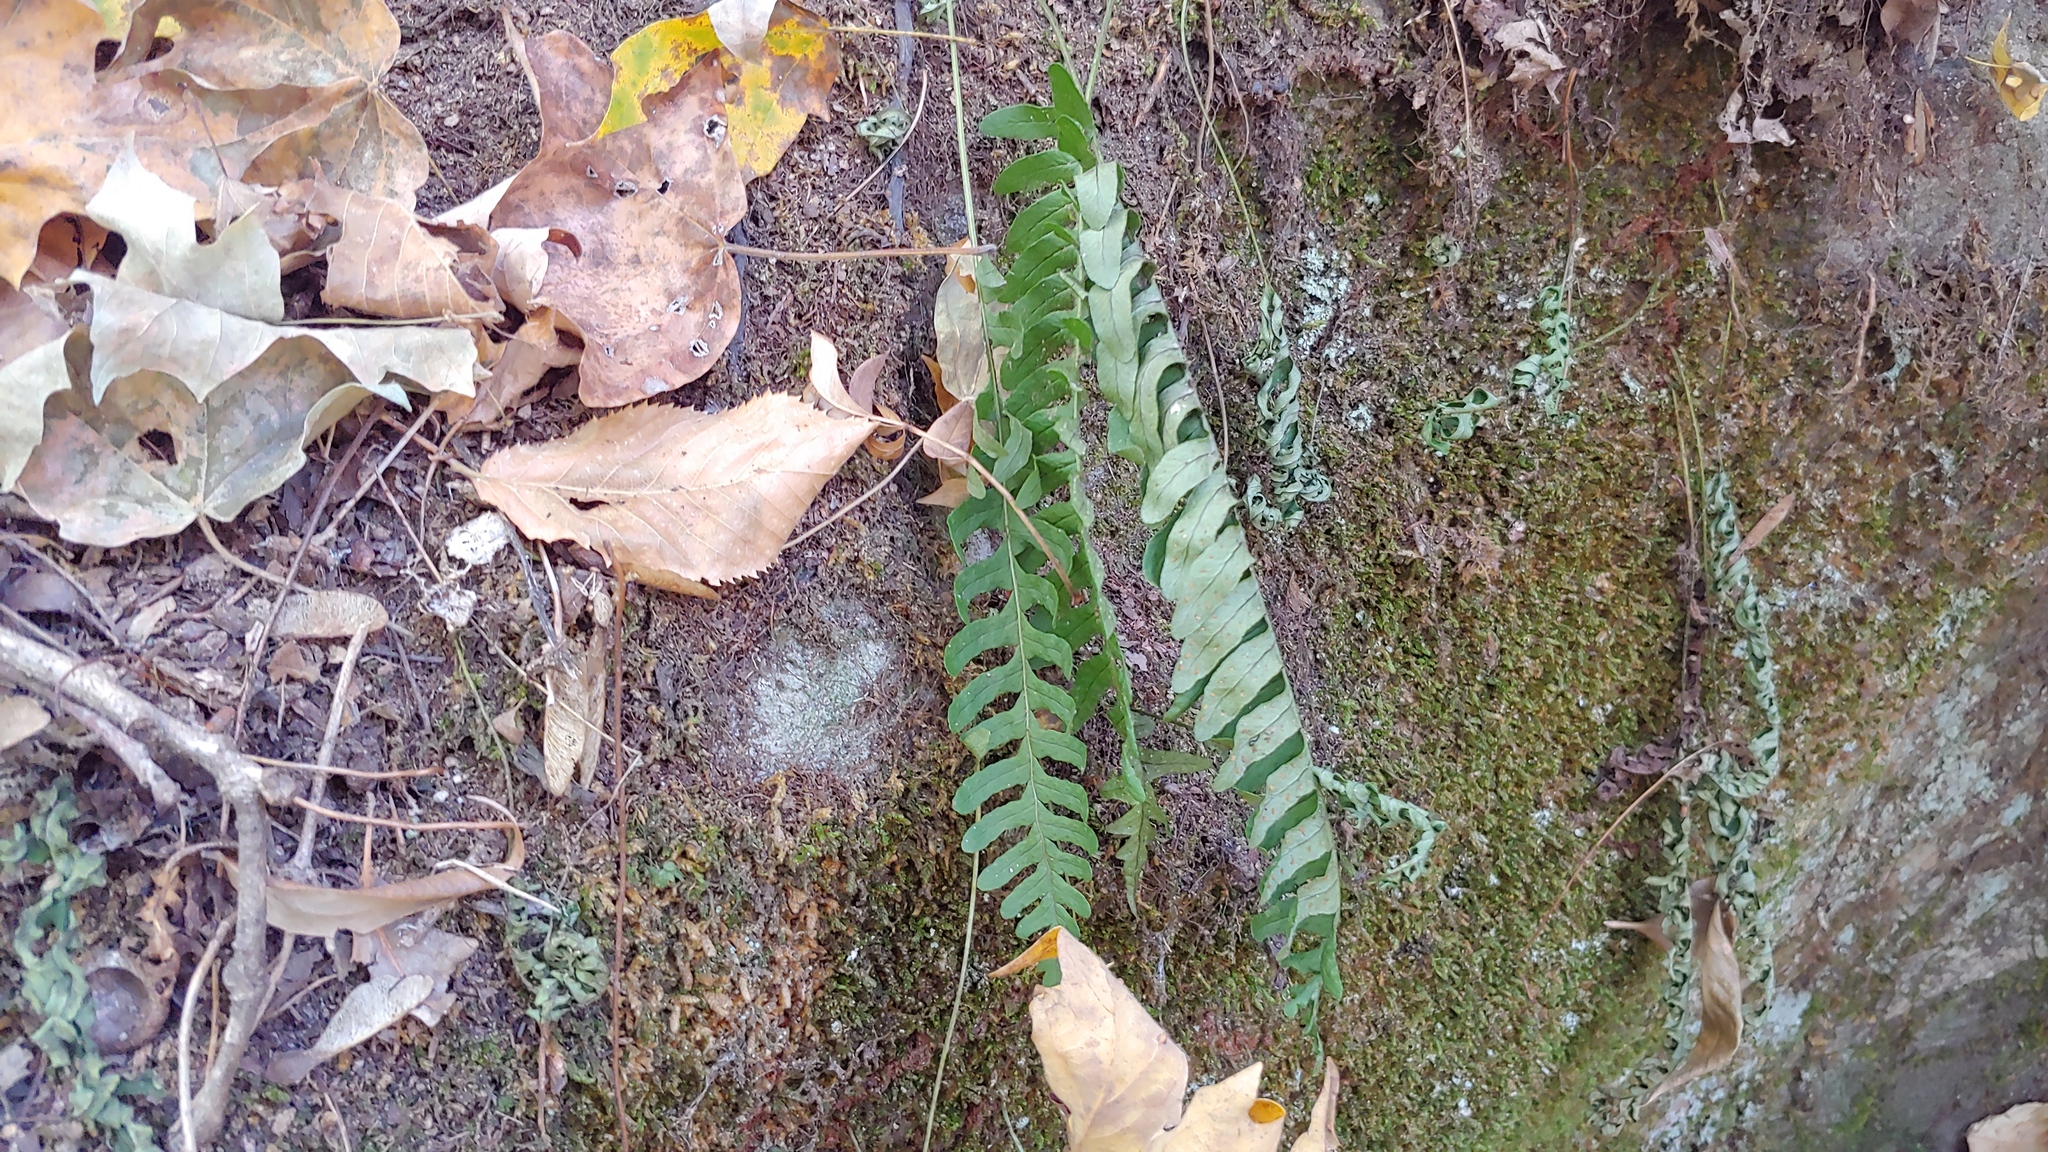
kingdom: Plantae
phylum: Tracheophyta
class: Polypodiopsida
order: Polypodiales
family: Polypodiaceae
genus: Polypodium
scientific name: Polypodium virginianum
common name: American wall fern
